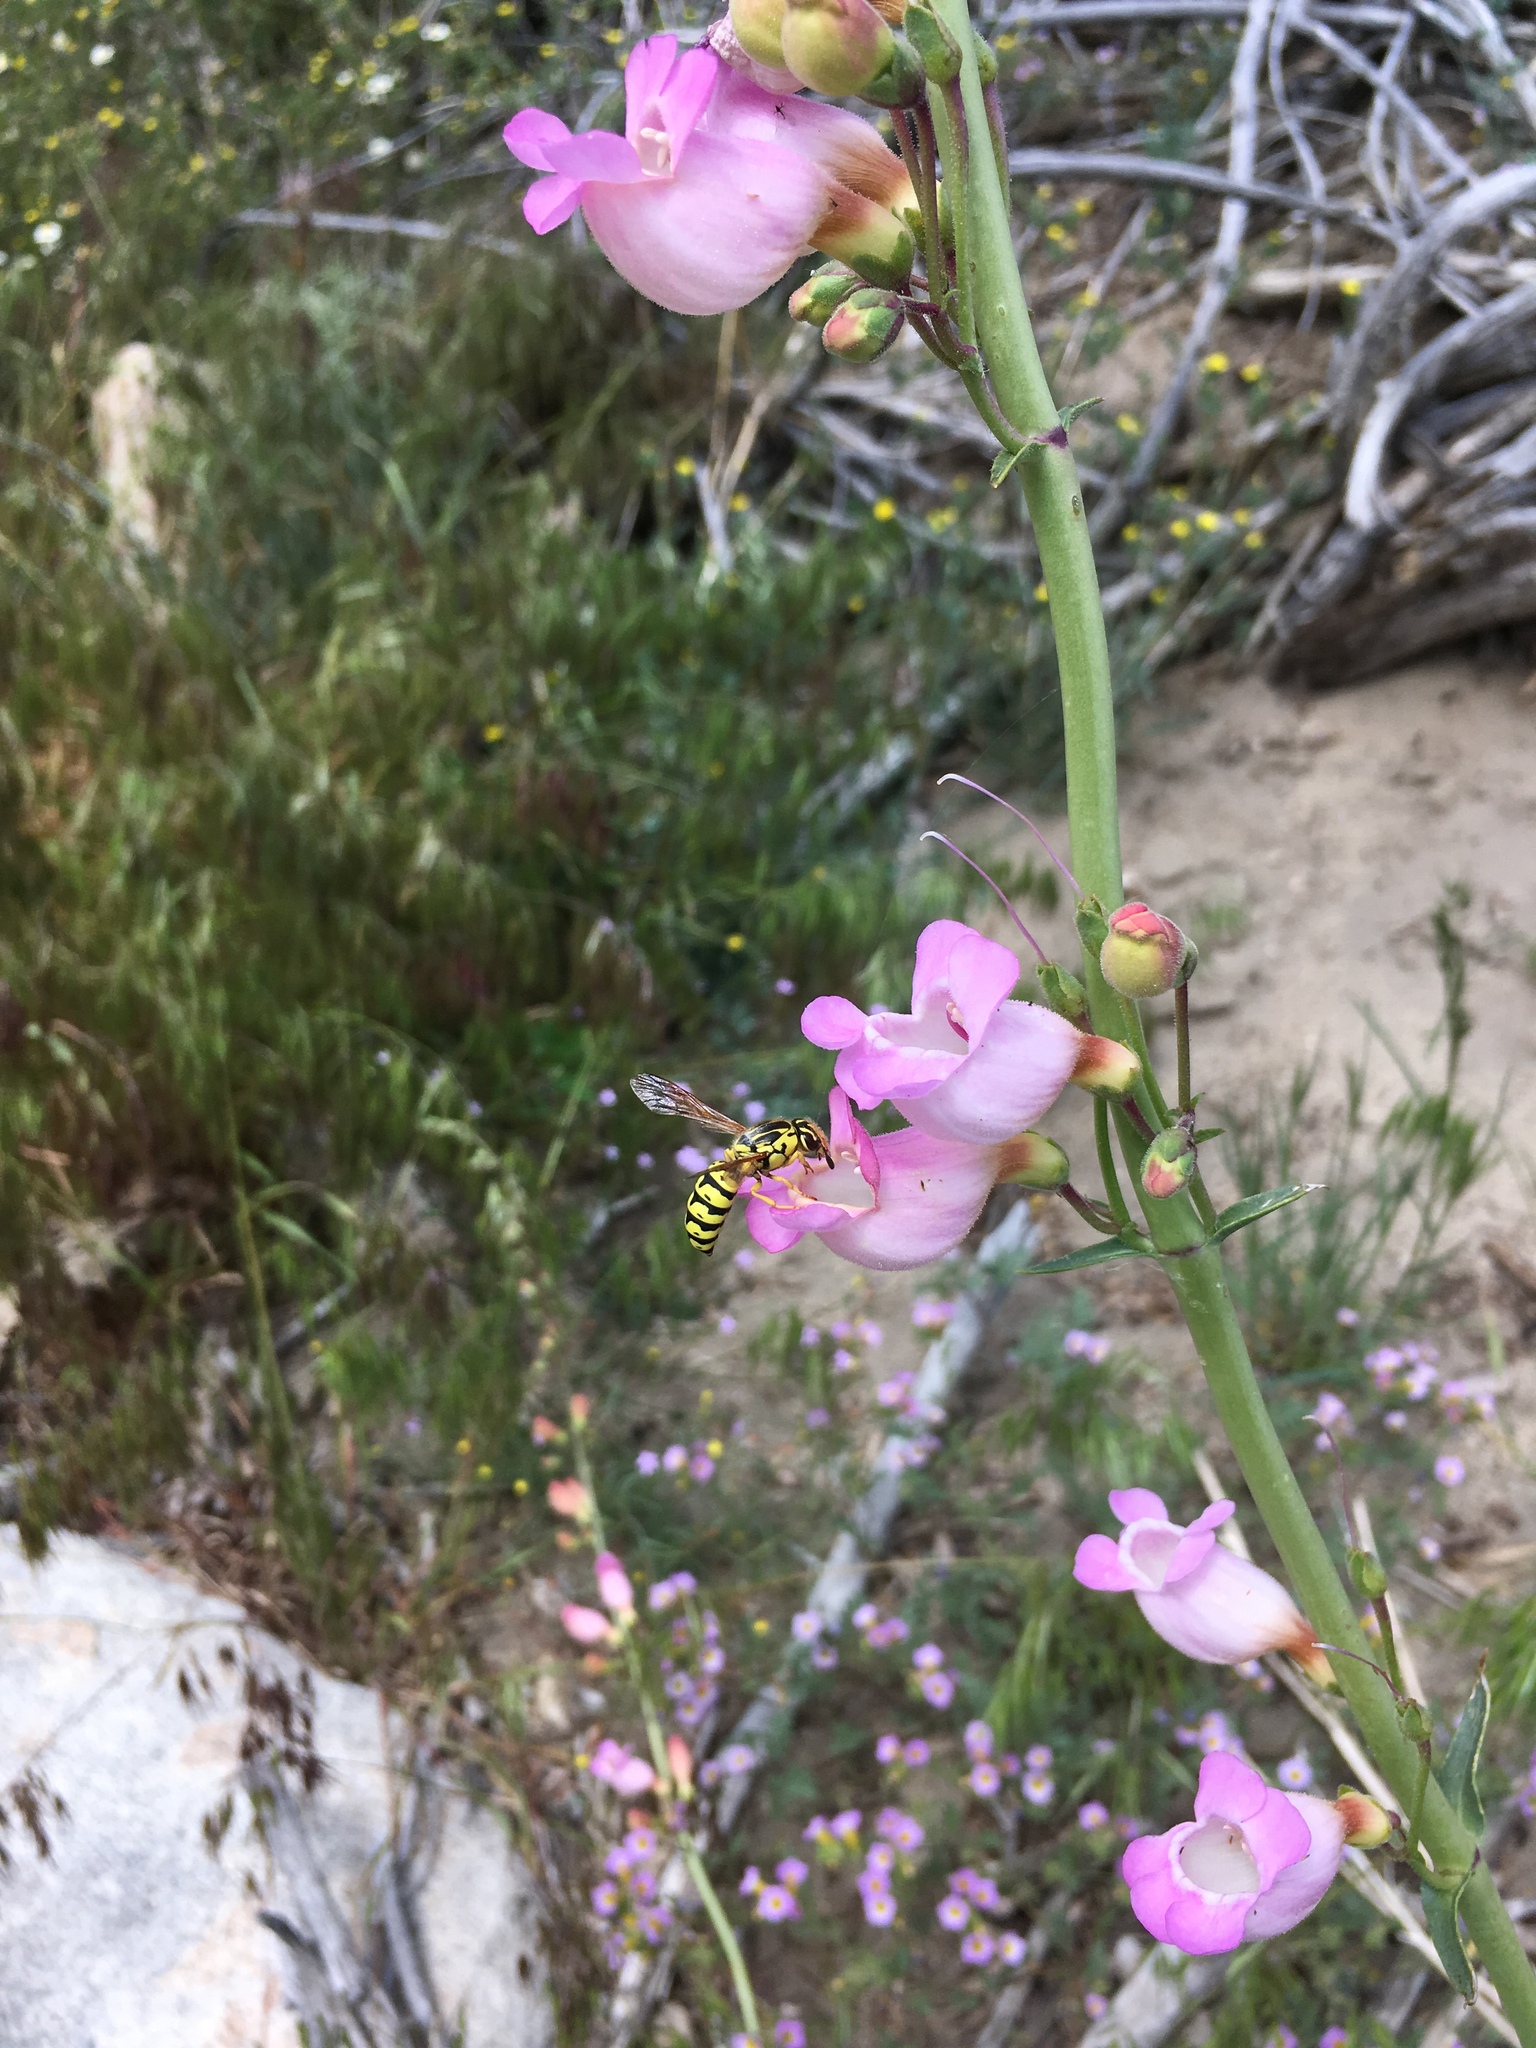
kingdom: Animalia
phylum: Arthropoda
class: Insecta
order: Hymenoptera
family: Masaridae
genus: Pseudomasaris
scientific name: Pseudomasaris wheeleri
